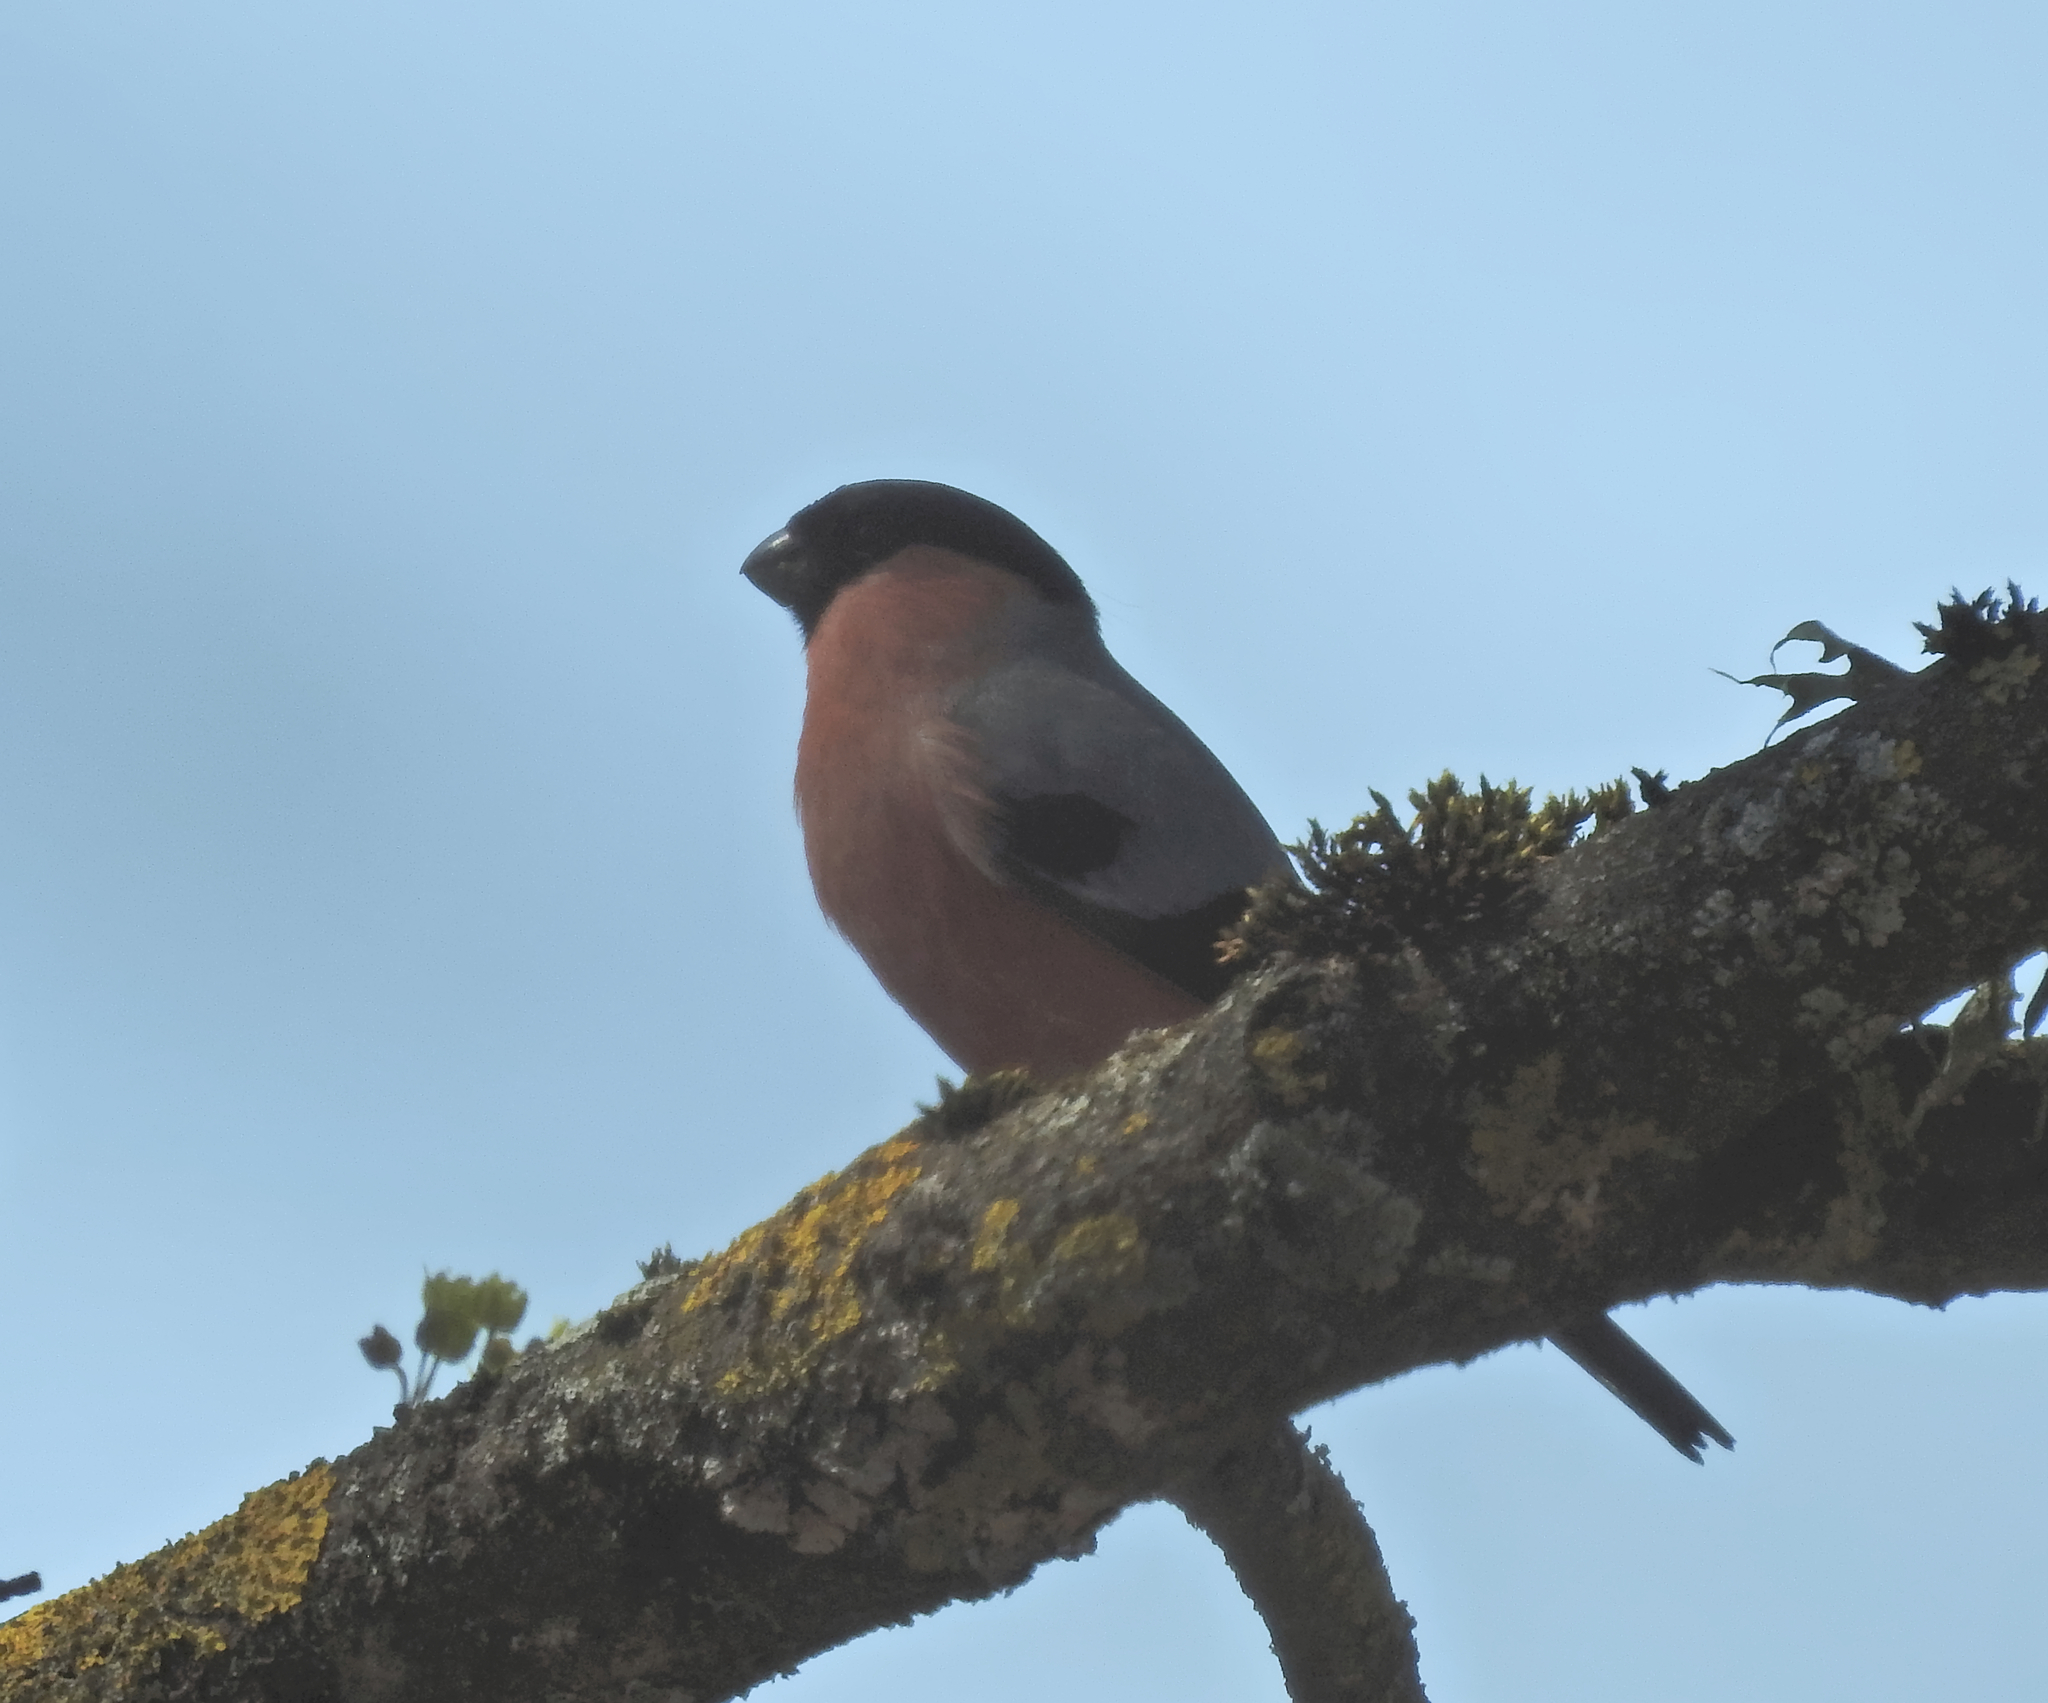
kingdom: Animalia
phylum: Chordata
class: Aves
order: Passeriformes
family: Fringillidae
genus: Pyrrhula
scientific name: Pyrrhula pyrrhula
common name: Eurasian bullfinch
